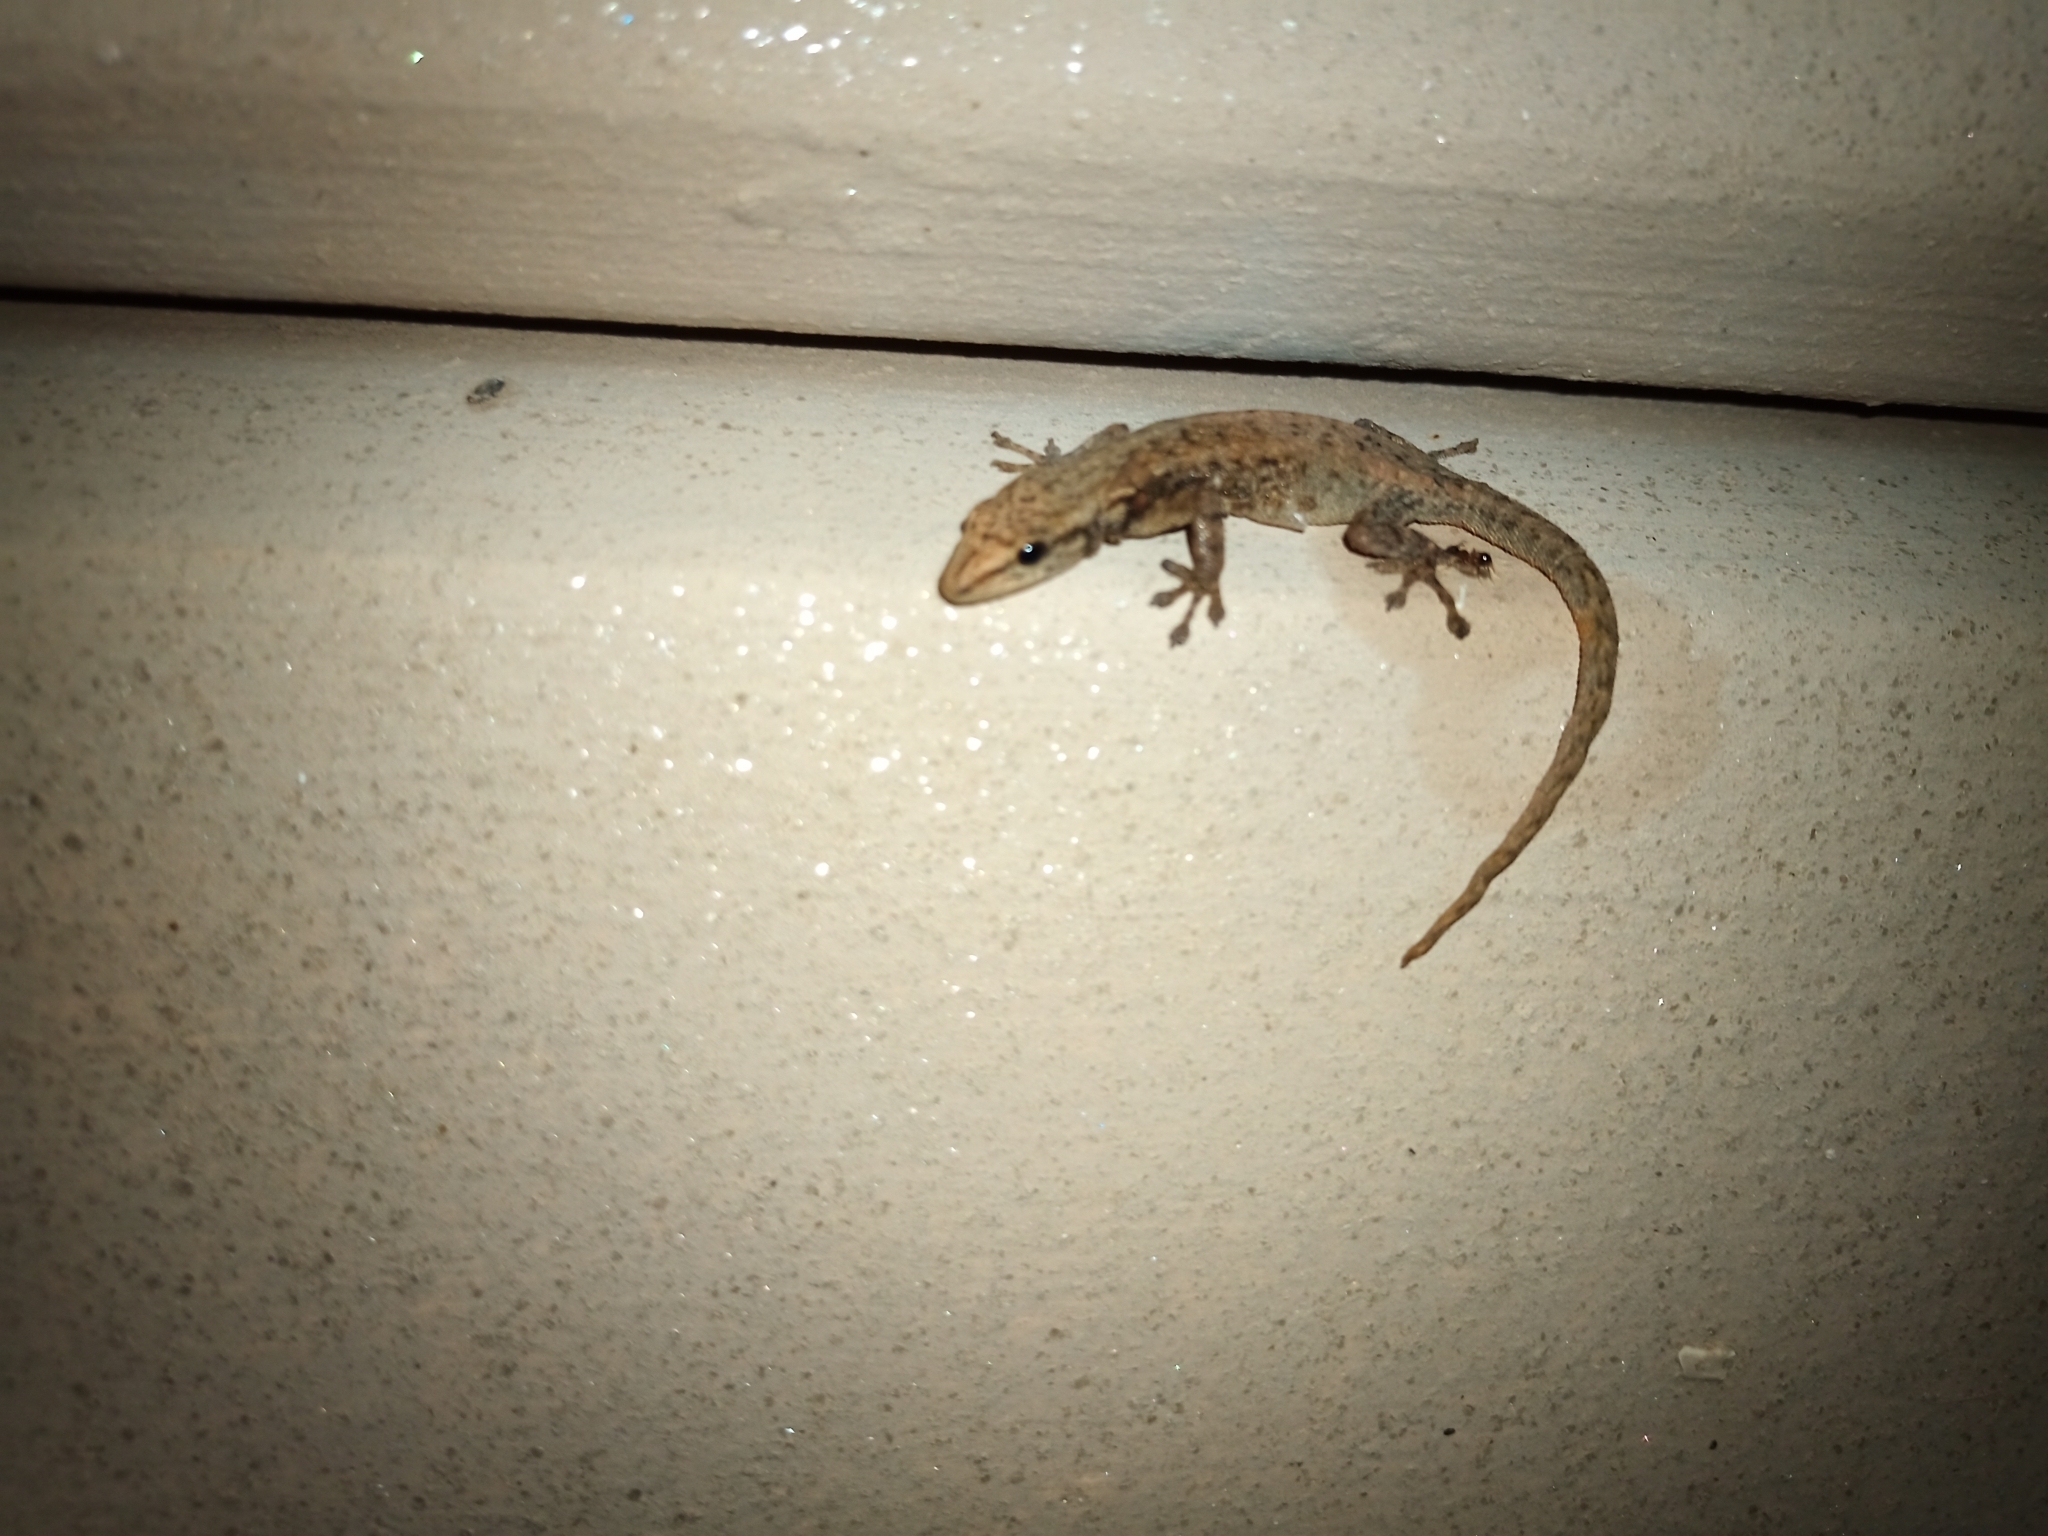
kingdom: Animalia
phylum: Chordata
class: Squamata
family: Gekkonidae
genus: Lygodactylus
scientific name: Lygodactylus capensis
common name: Cape dwarf gecko
